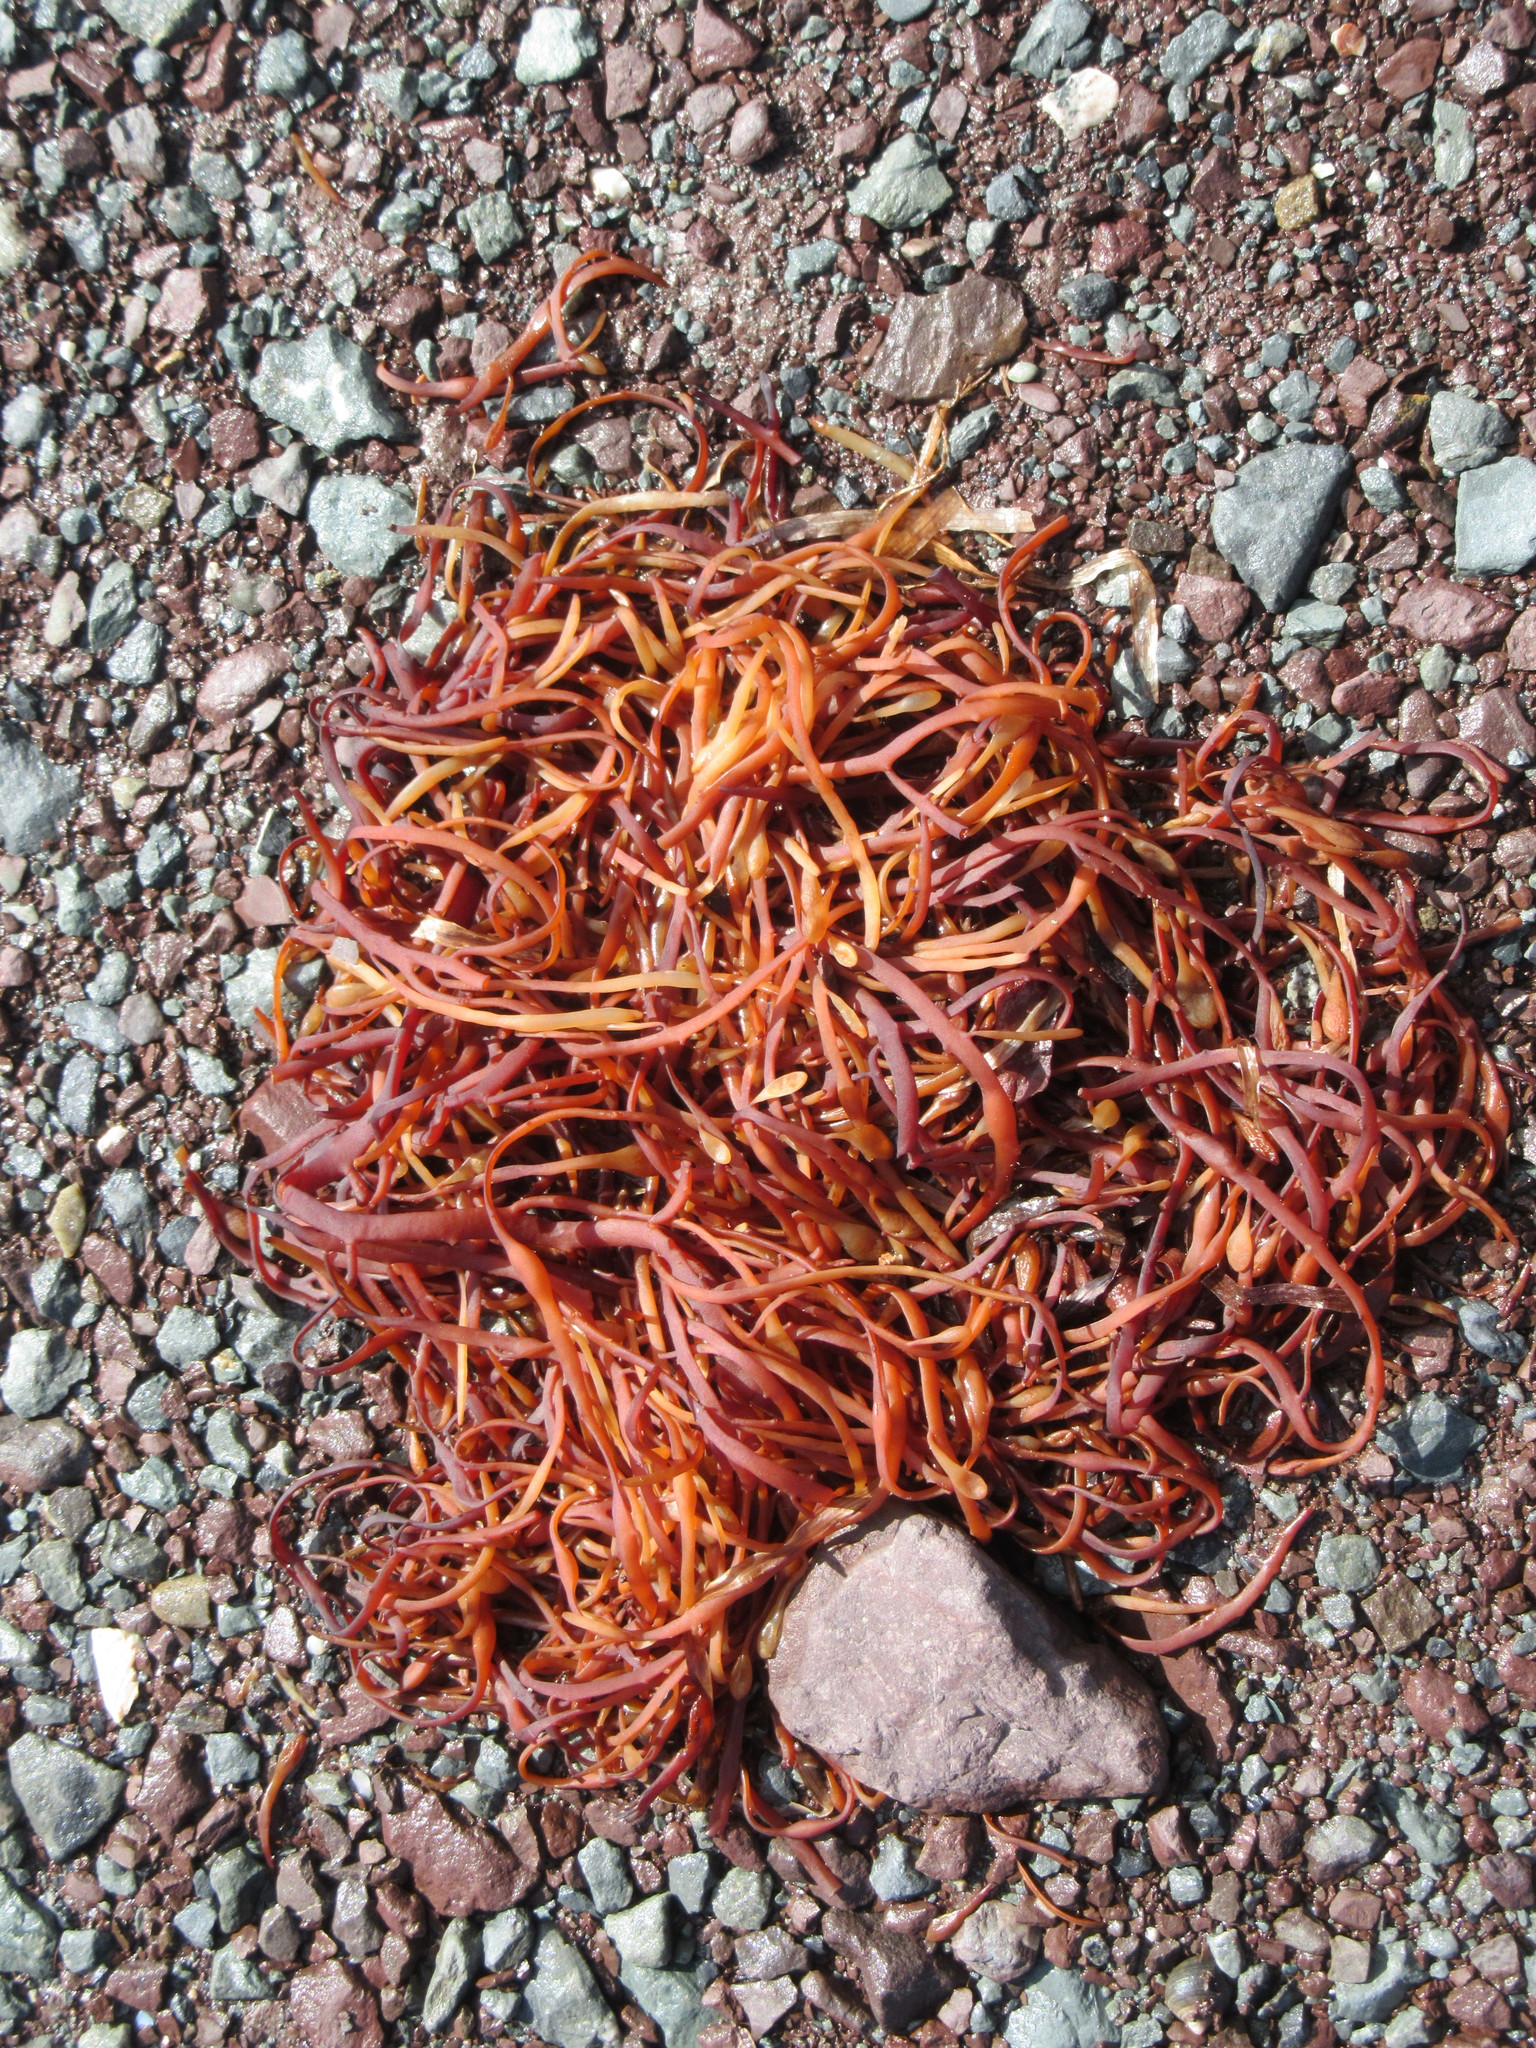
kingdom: Chromista
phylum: Ochrophyta
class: Phaeophyceae
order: Fucales
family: Fucaceae
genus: Ascophyllum
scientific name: Ascophyllum nodosum
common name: Knotted wrack
